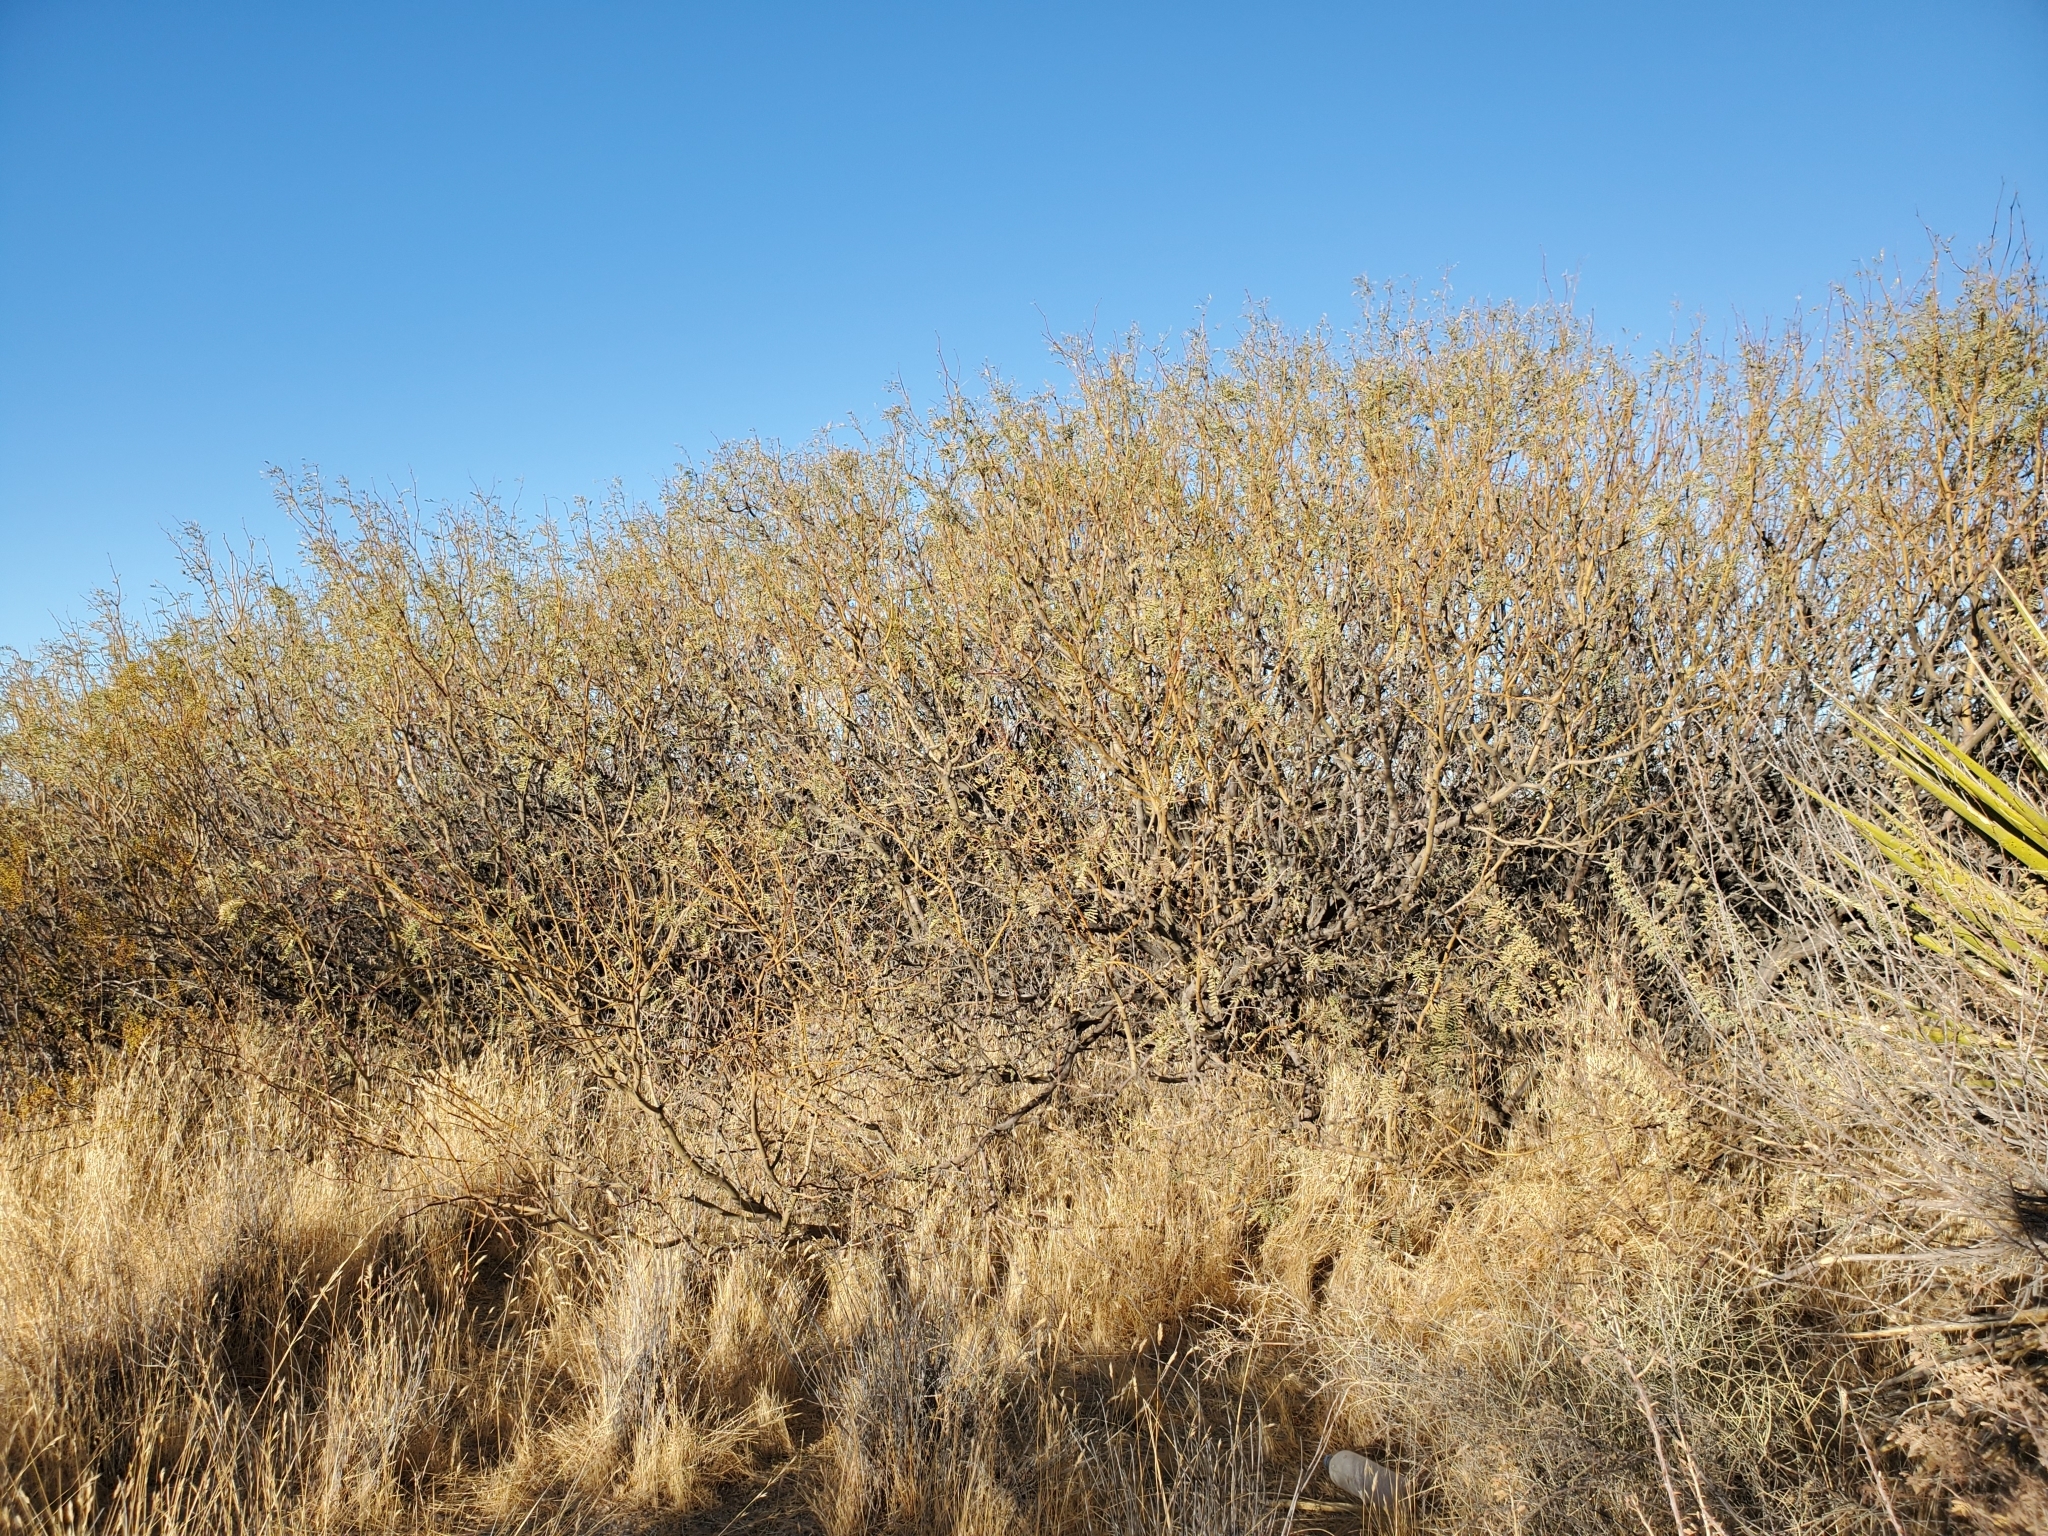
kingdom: Plantae
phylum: Tracheophyta
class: Magnoliopsida
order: Fabales
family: Fabaceae
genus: Prosopis
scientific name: Prosopis pubescens
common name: Screw-bean
